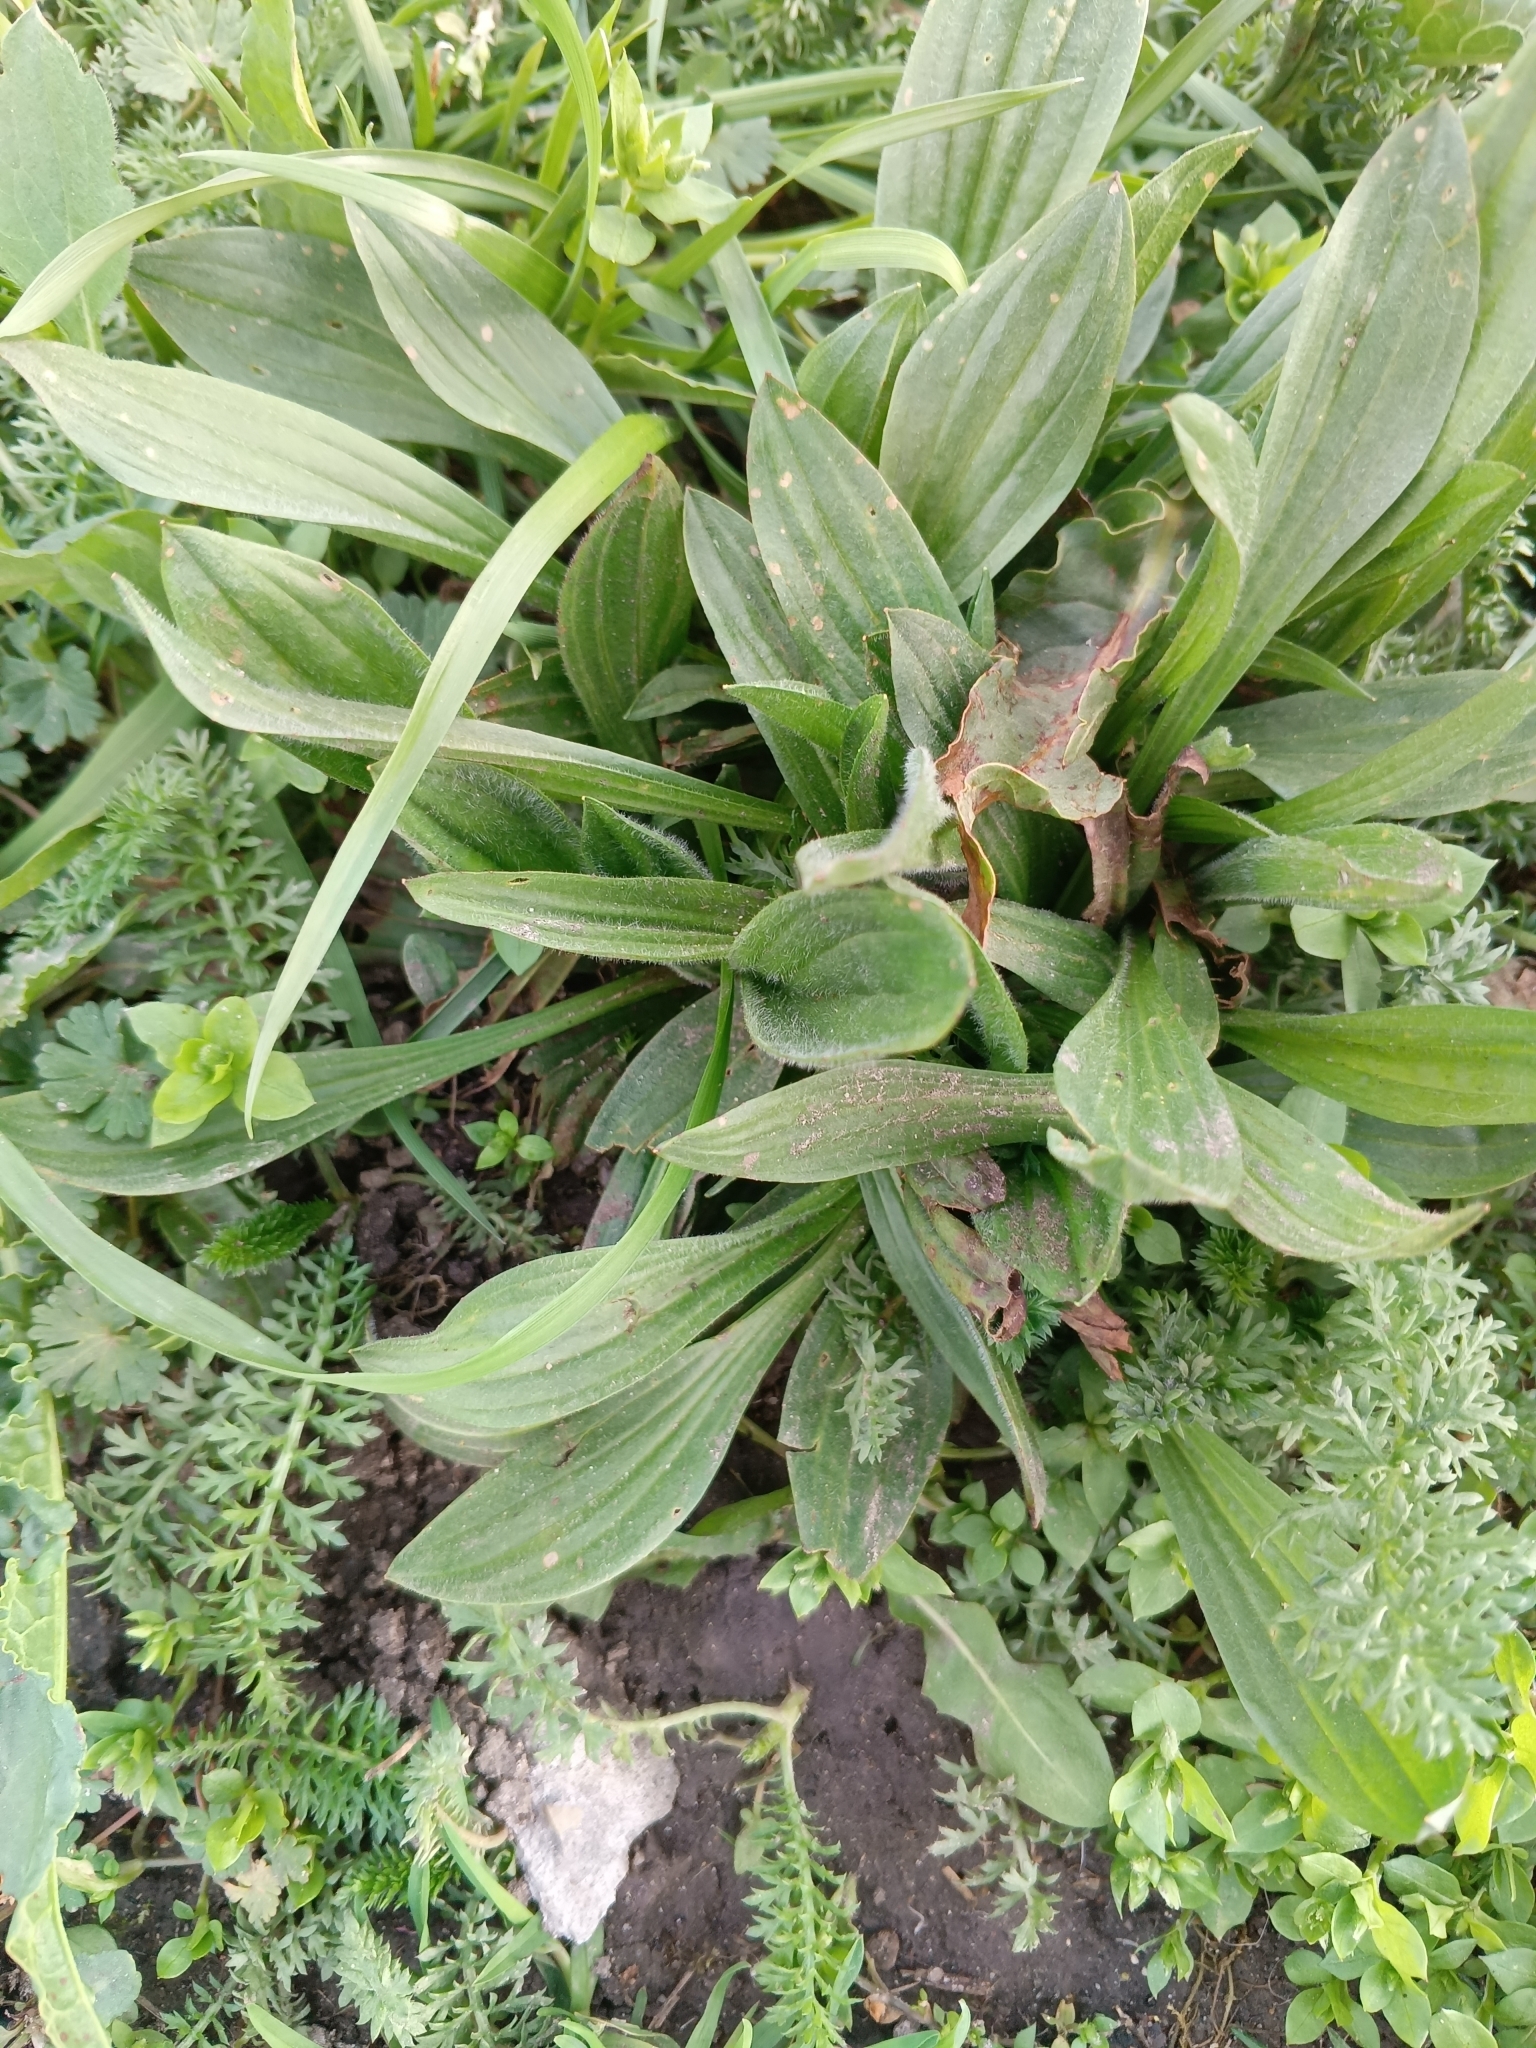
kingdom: Plantae
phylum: Tracheophyta
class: Magnoliopsida
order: Lamiales
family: Plantaginaceae
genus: Plantago
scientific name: Plantago lanceolata
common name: Ribwort plantain
